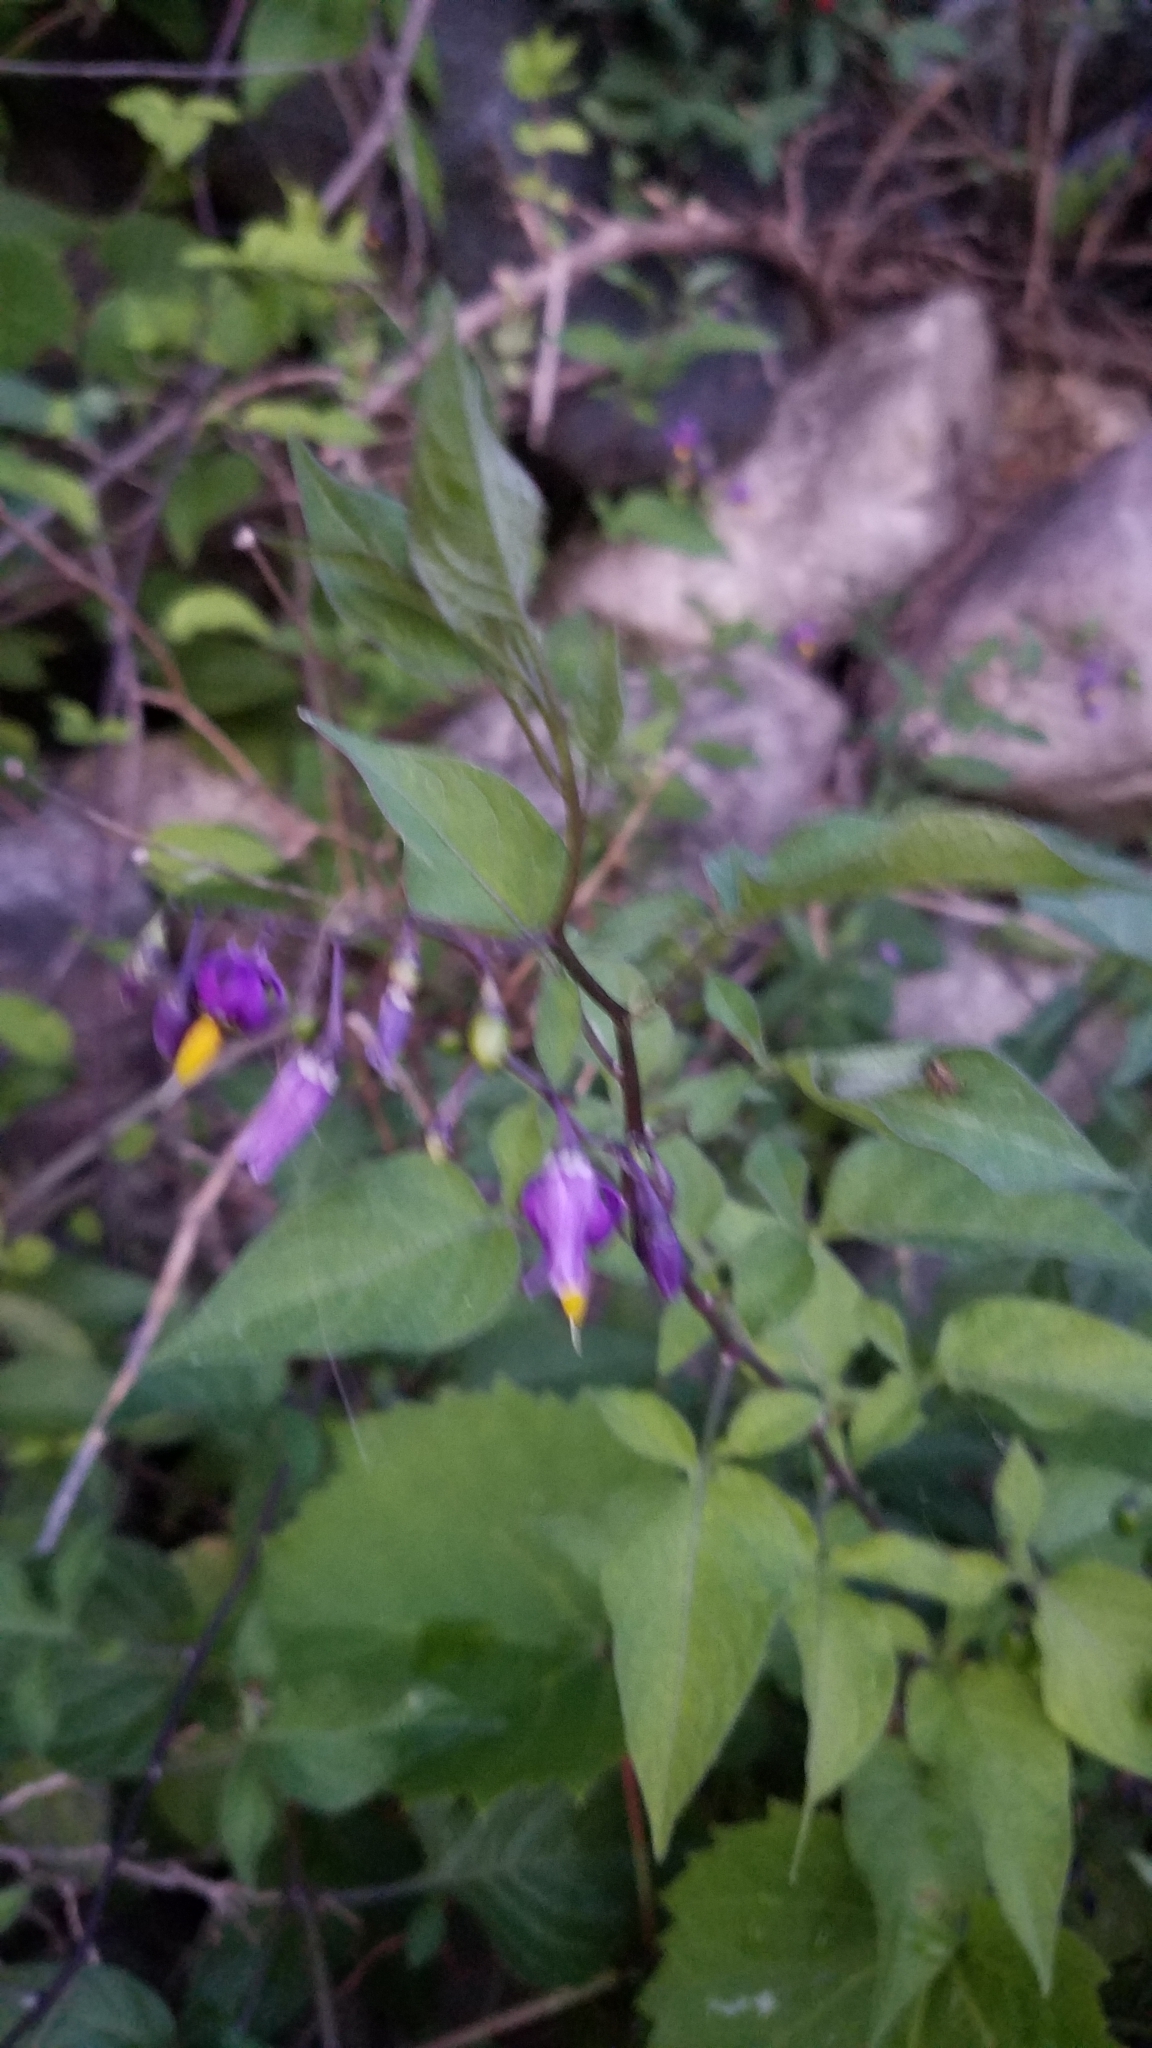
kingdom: Plantae
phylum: Tracheophyta
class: Magnoliopsida
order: Solanales
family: Solanaceae
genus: Solanum
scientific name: Solanum dulcamara
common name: Climbing nightshade
